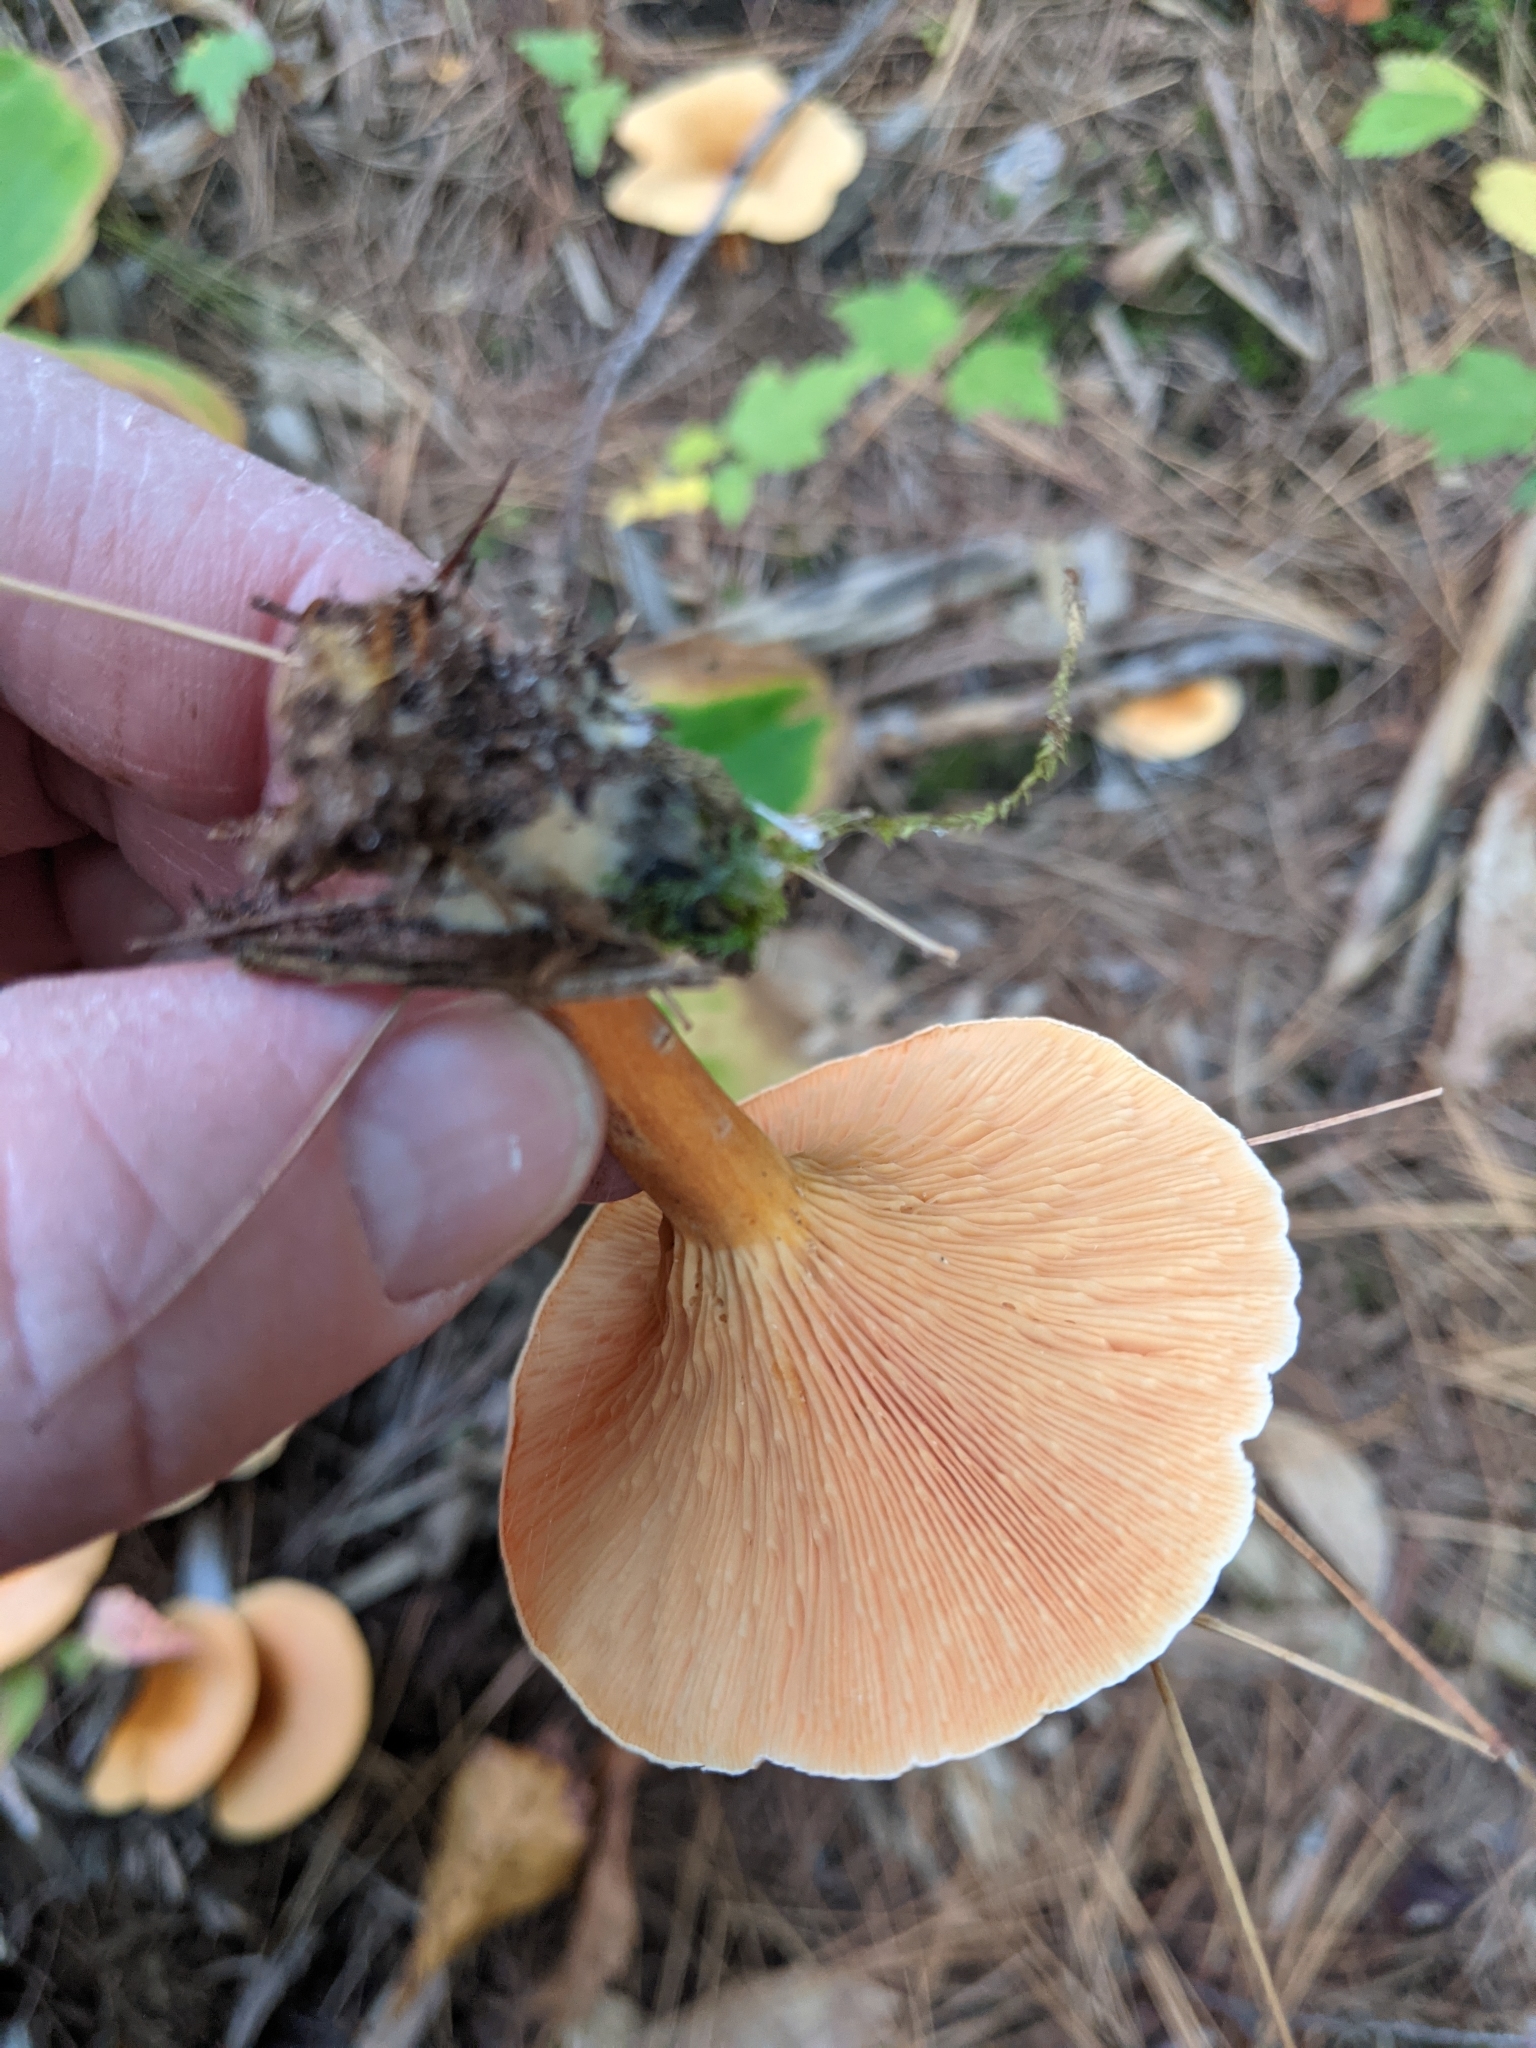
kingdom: Fungi
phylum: Basidiomycota
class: Agaricomycetes
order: Boletales
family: Hygrophoropsidaceae
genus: Hygrophoropsis
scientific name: Hygrophoropsis aurantiaca
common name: False chanterelle
